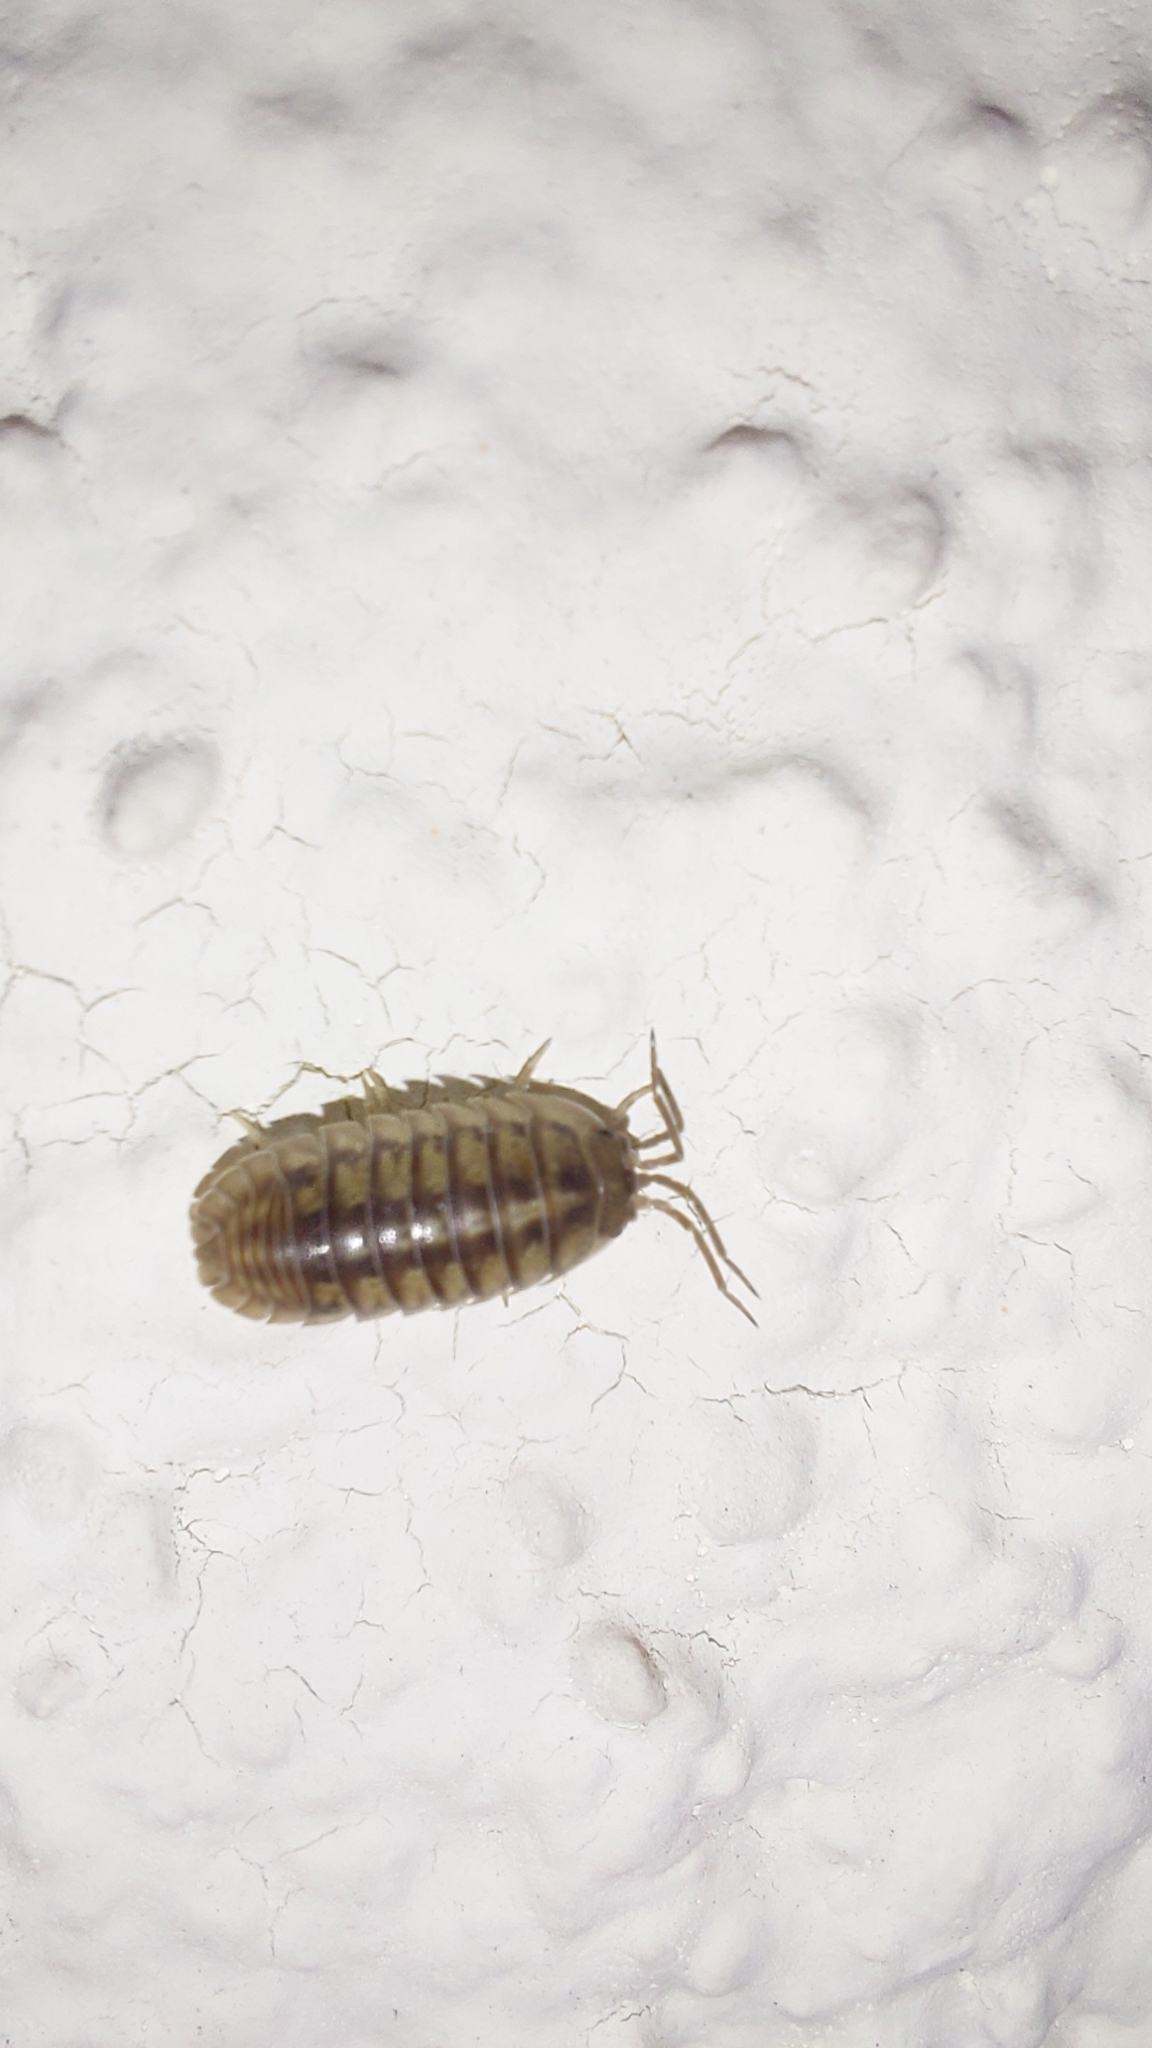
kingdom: Animalia
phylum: Arthropoda
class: Malacostraca
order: Isopoda
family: Armadillidiidae
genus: Armadillidium
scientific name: Armadillidium nasatum
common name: Isopod
